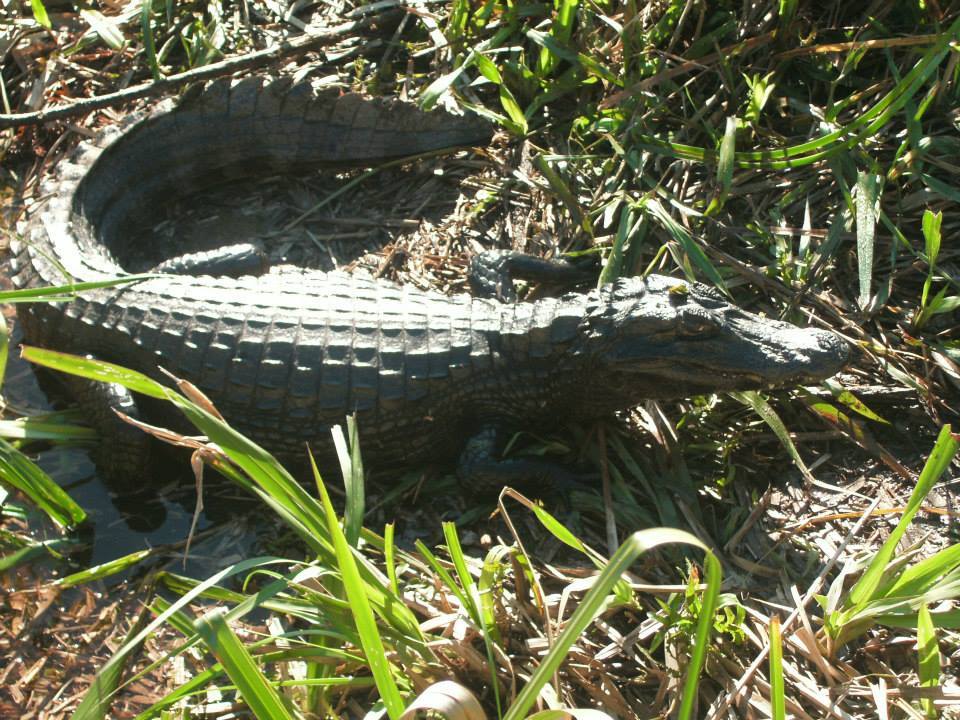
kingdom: Animalia
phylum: Chordata
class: Crocodylia
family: Alligatoridae
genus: Caiman
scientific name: Caiman yacare
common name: Yacare caiman
